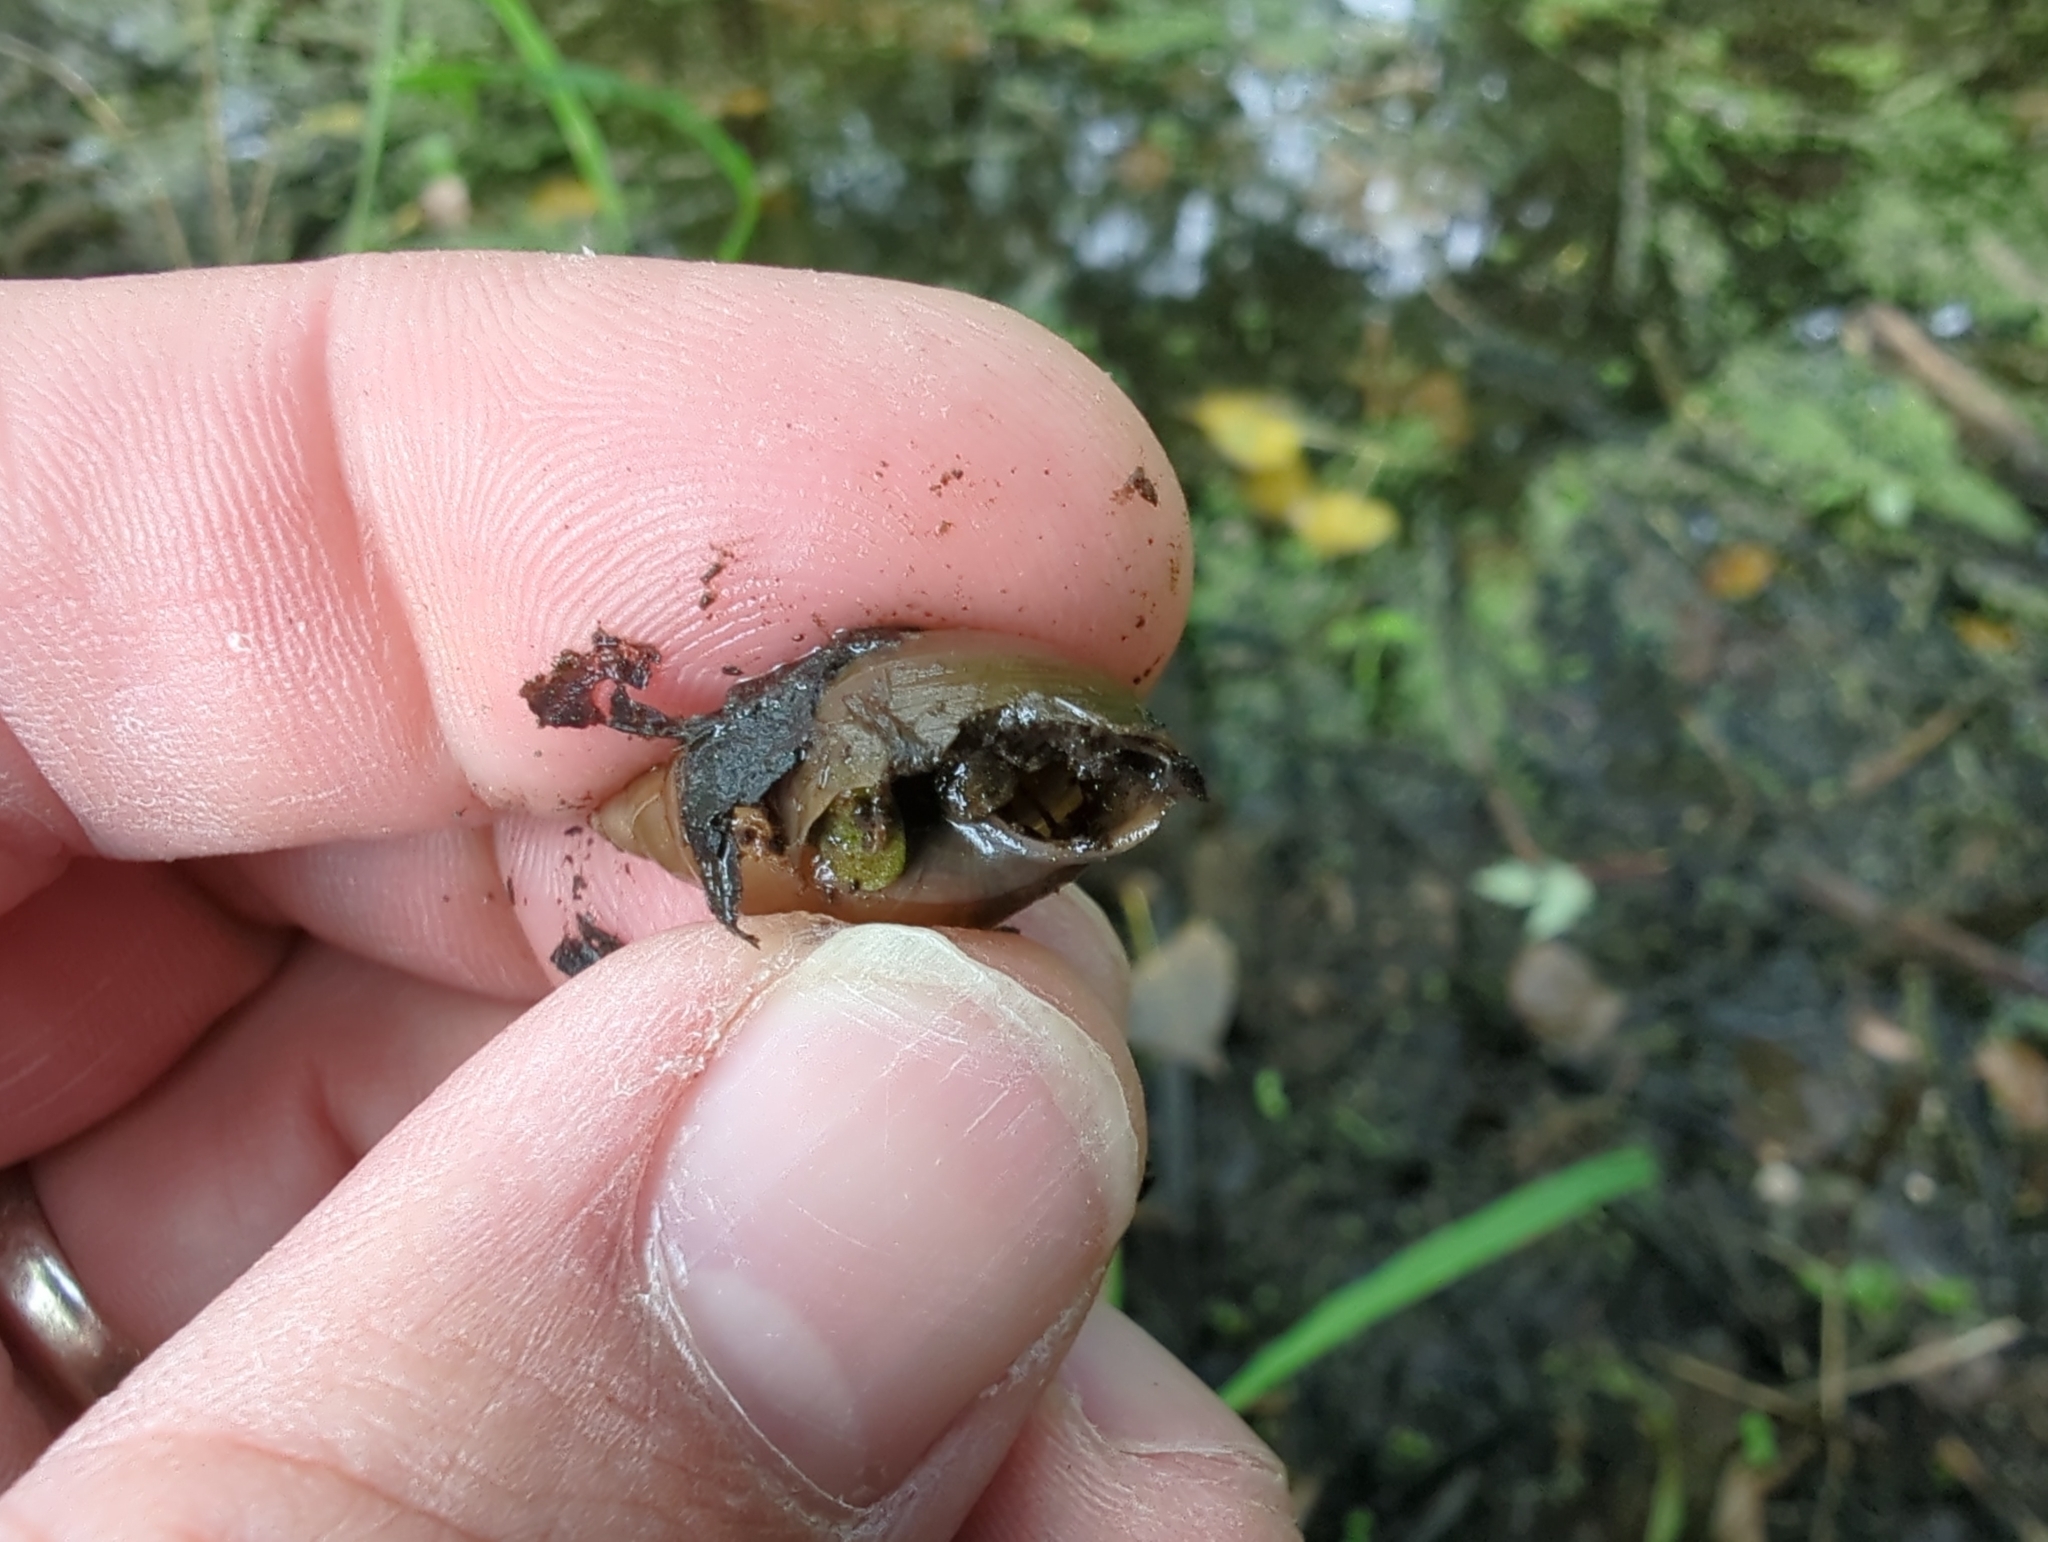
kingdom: Animalia
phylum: Mollusca
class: Gastropoda
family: Lymnaeidae
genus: Ladislavella
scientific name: Ladislavella elodes
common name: Marsh pondsnail
